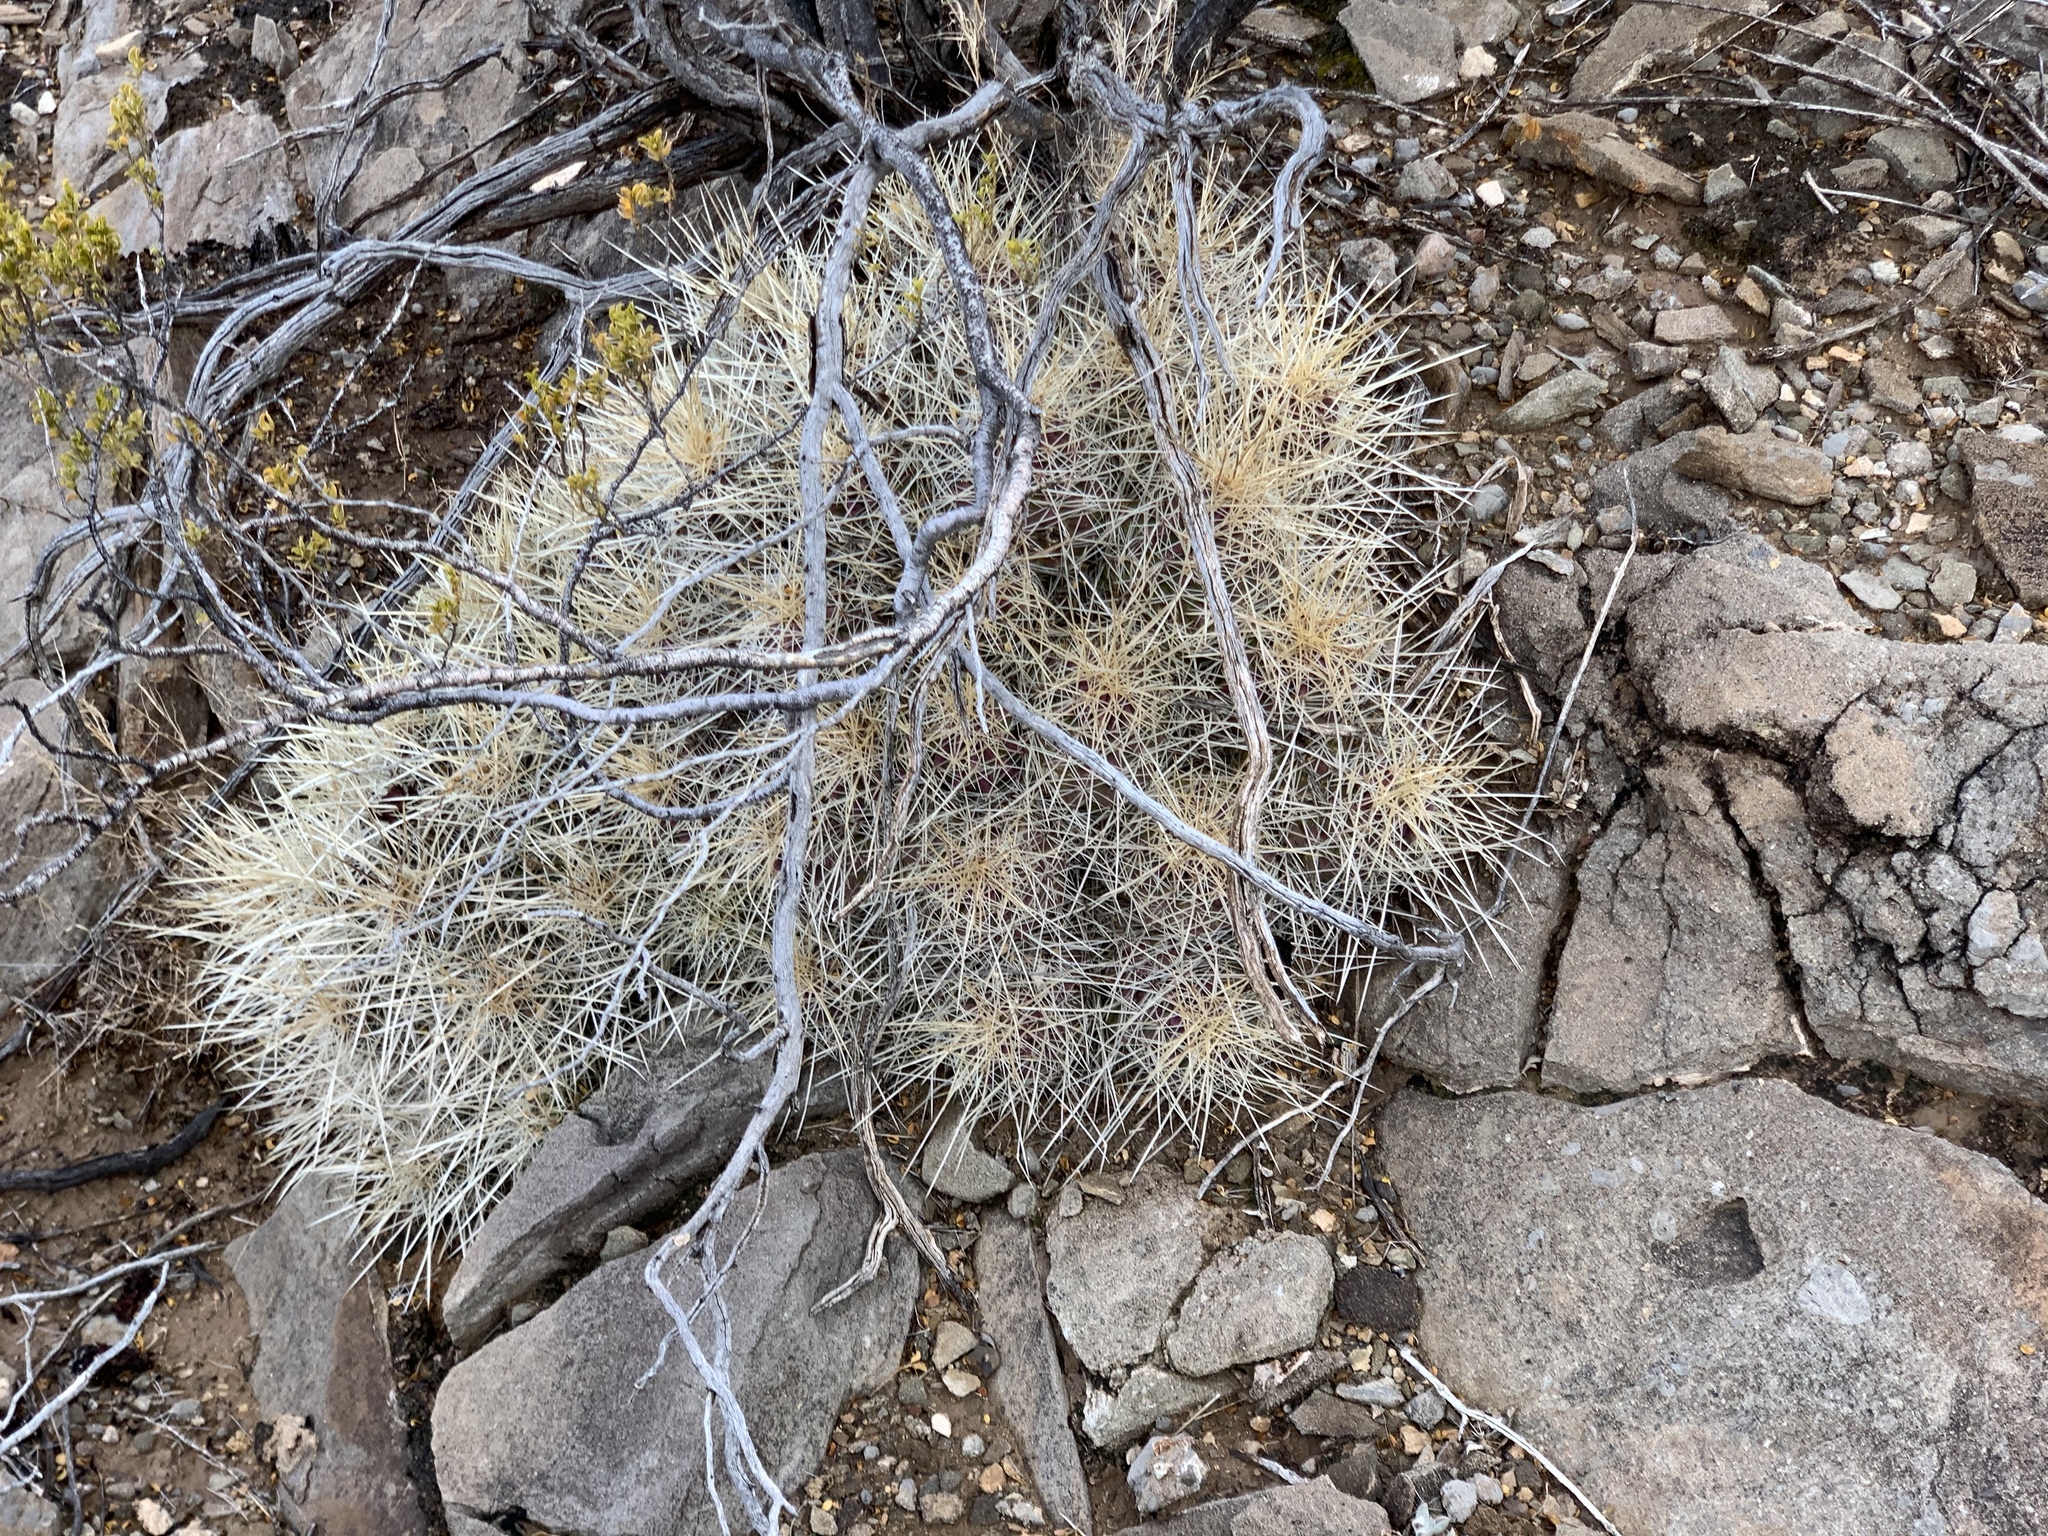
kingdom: Plantae
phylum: Tracheophyta
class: Magnoliopsida
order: Caryophyllales
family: Cactaceae
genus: Echinocereus
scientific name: Echinocereus stramineus
